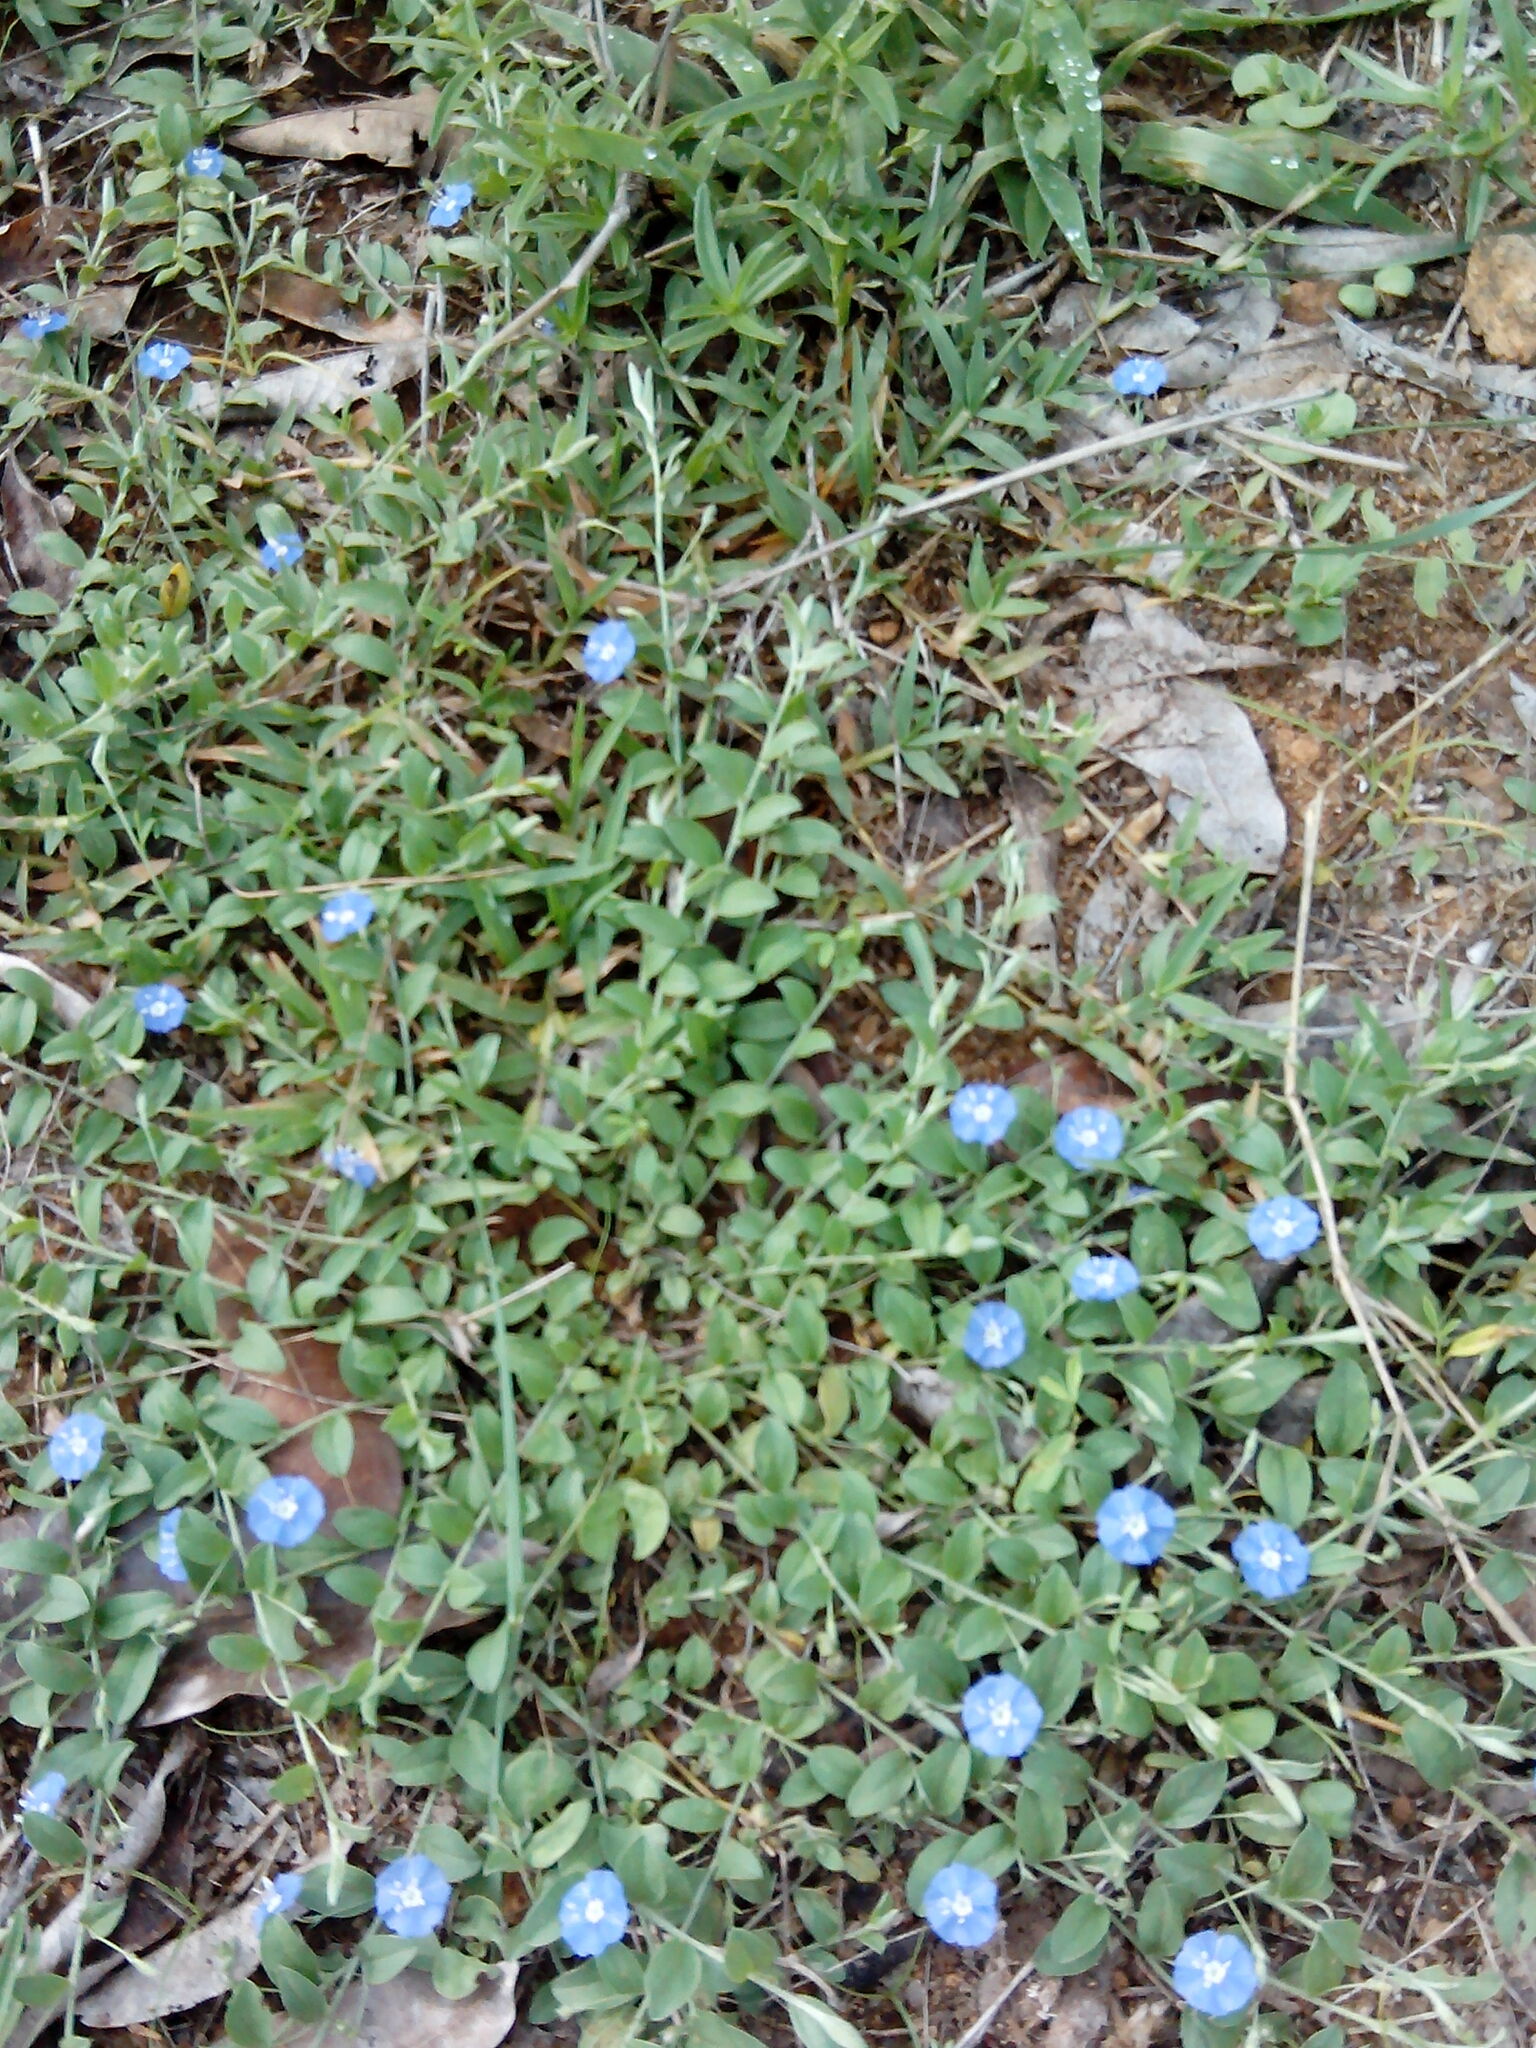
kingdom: Plantae
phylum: Tracheophyta
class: Magnoliopsida
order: Solanales
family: Convolvulaceae
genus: Evolvulus
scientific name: Evolvulus alsinoides
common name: Slender dwarf morning-glory
